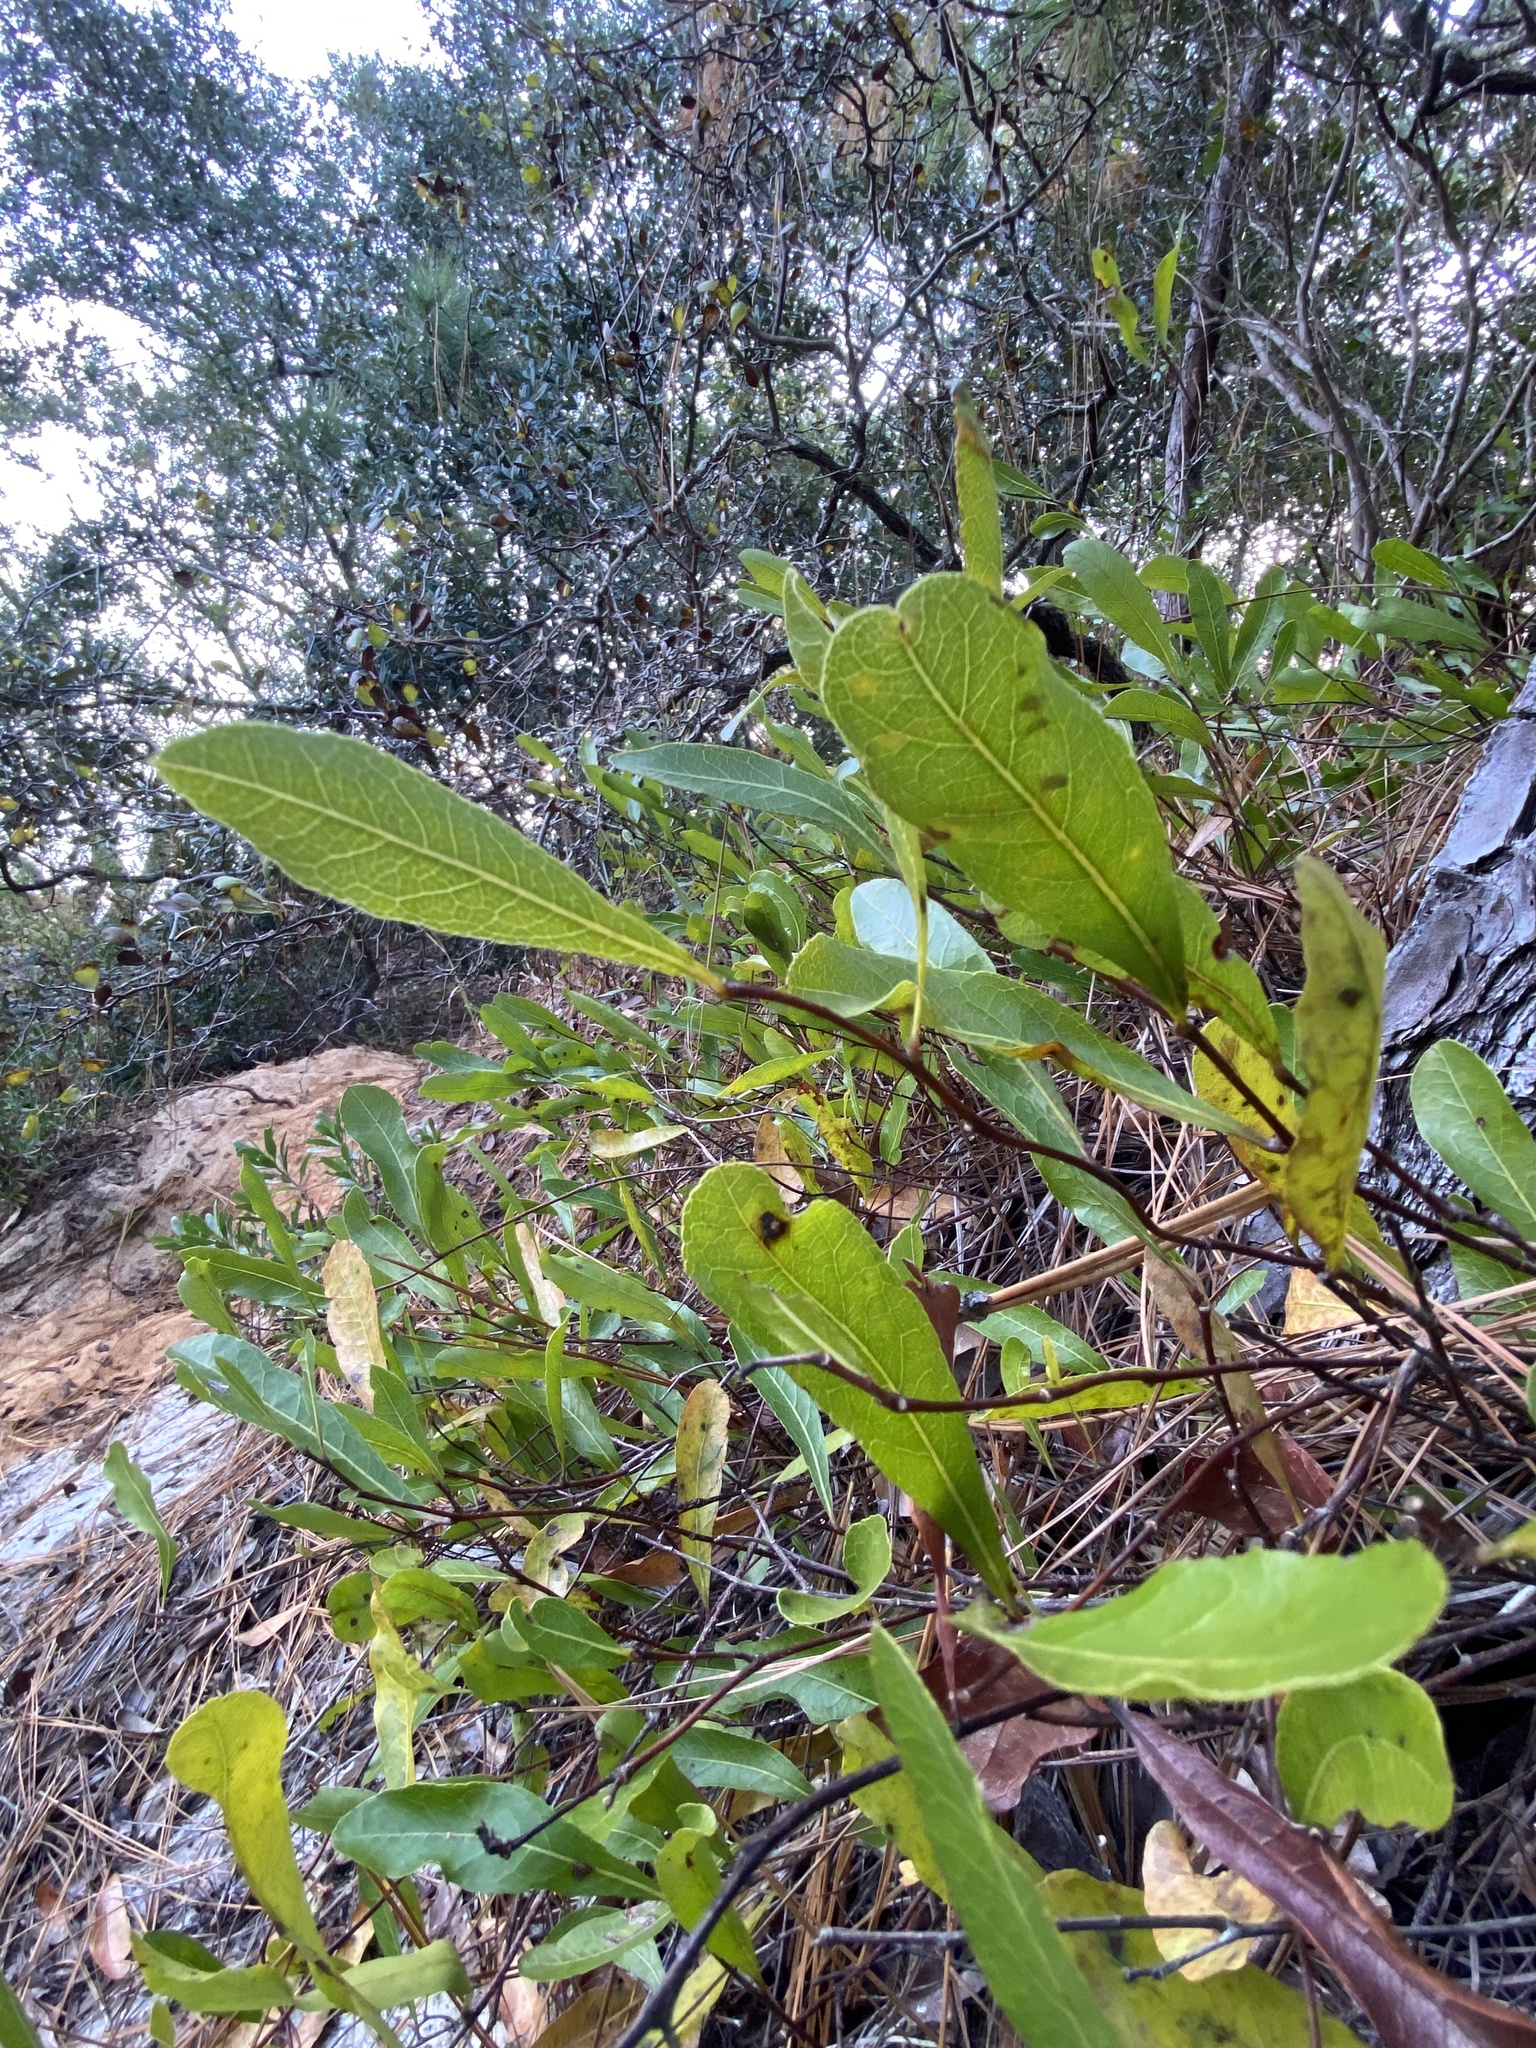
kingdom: Plantae
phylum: Tracheophyta
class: Magnoliopsida
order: Malpighiales
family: Chrysobalanaceae
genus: Geobalanus
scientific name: Geobalanus oblongifolius
